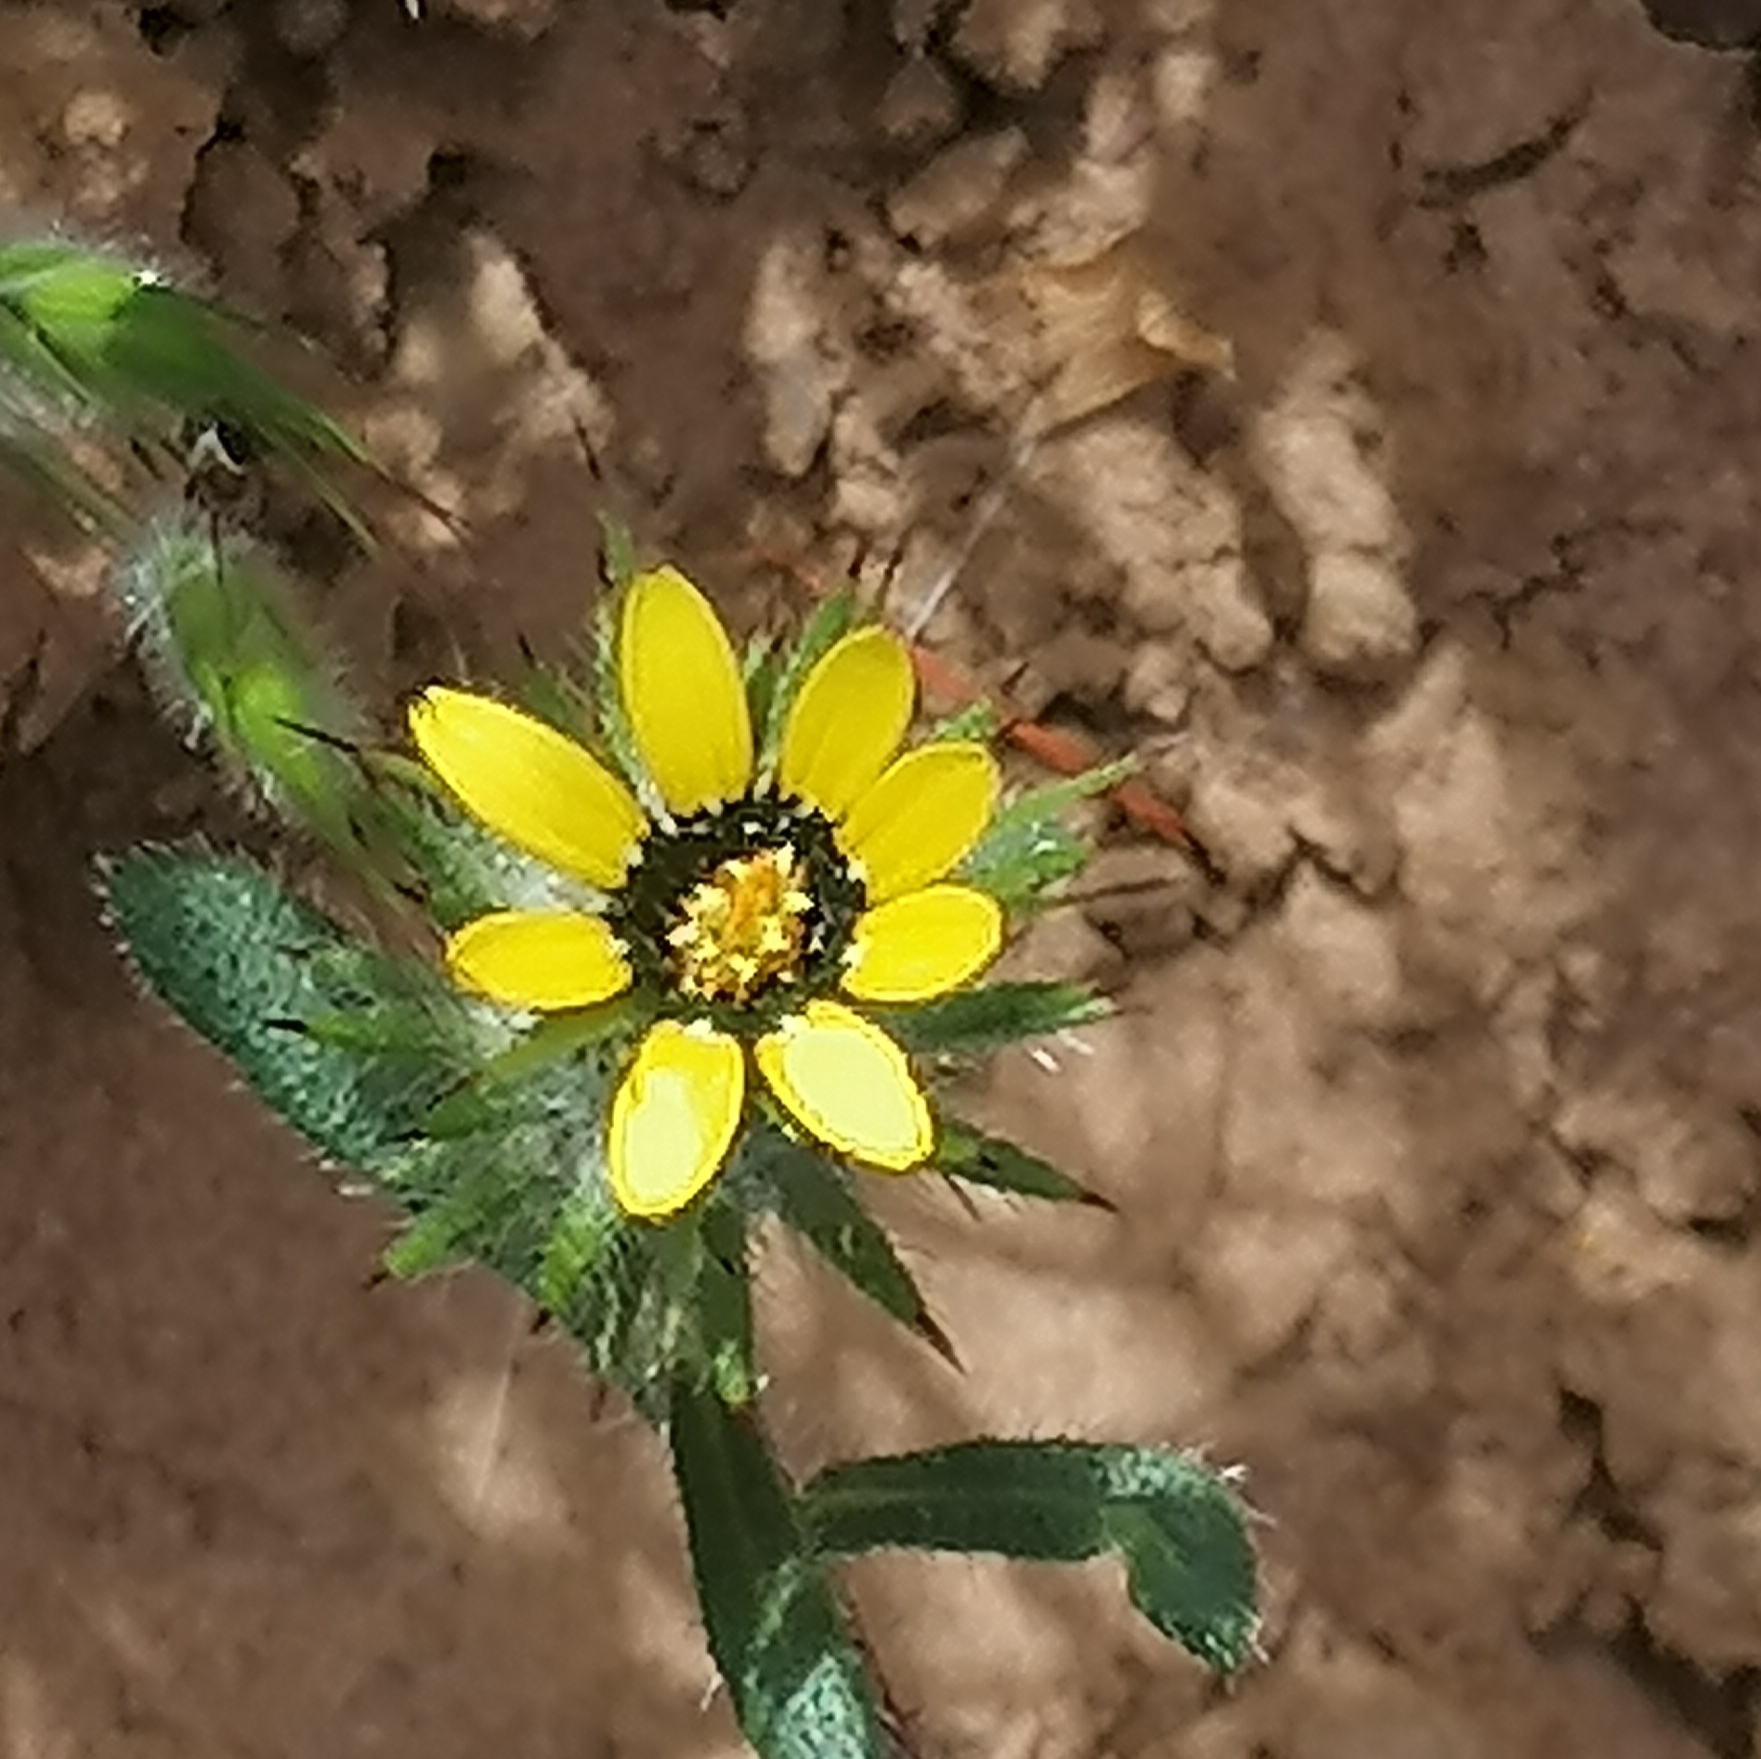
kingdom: Plantae
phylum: Tracheophyta
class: Magnoliopsida
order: Asterales
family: Asteraceae
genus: Gorteria
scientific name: Gorteria personata
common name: Gorteria
